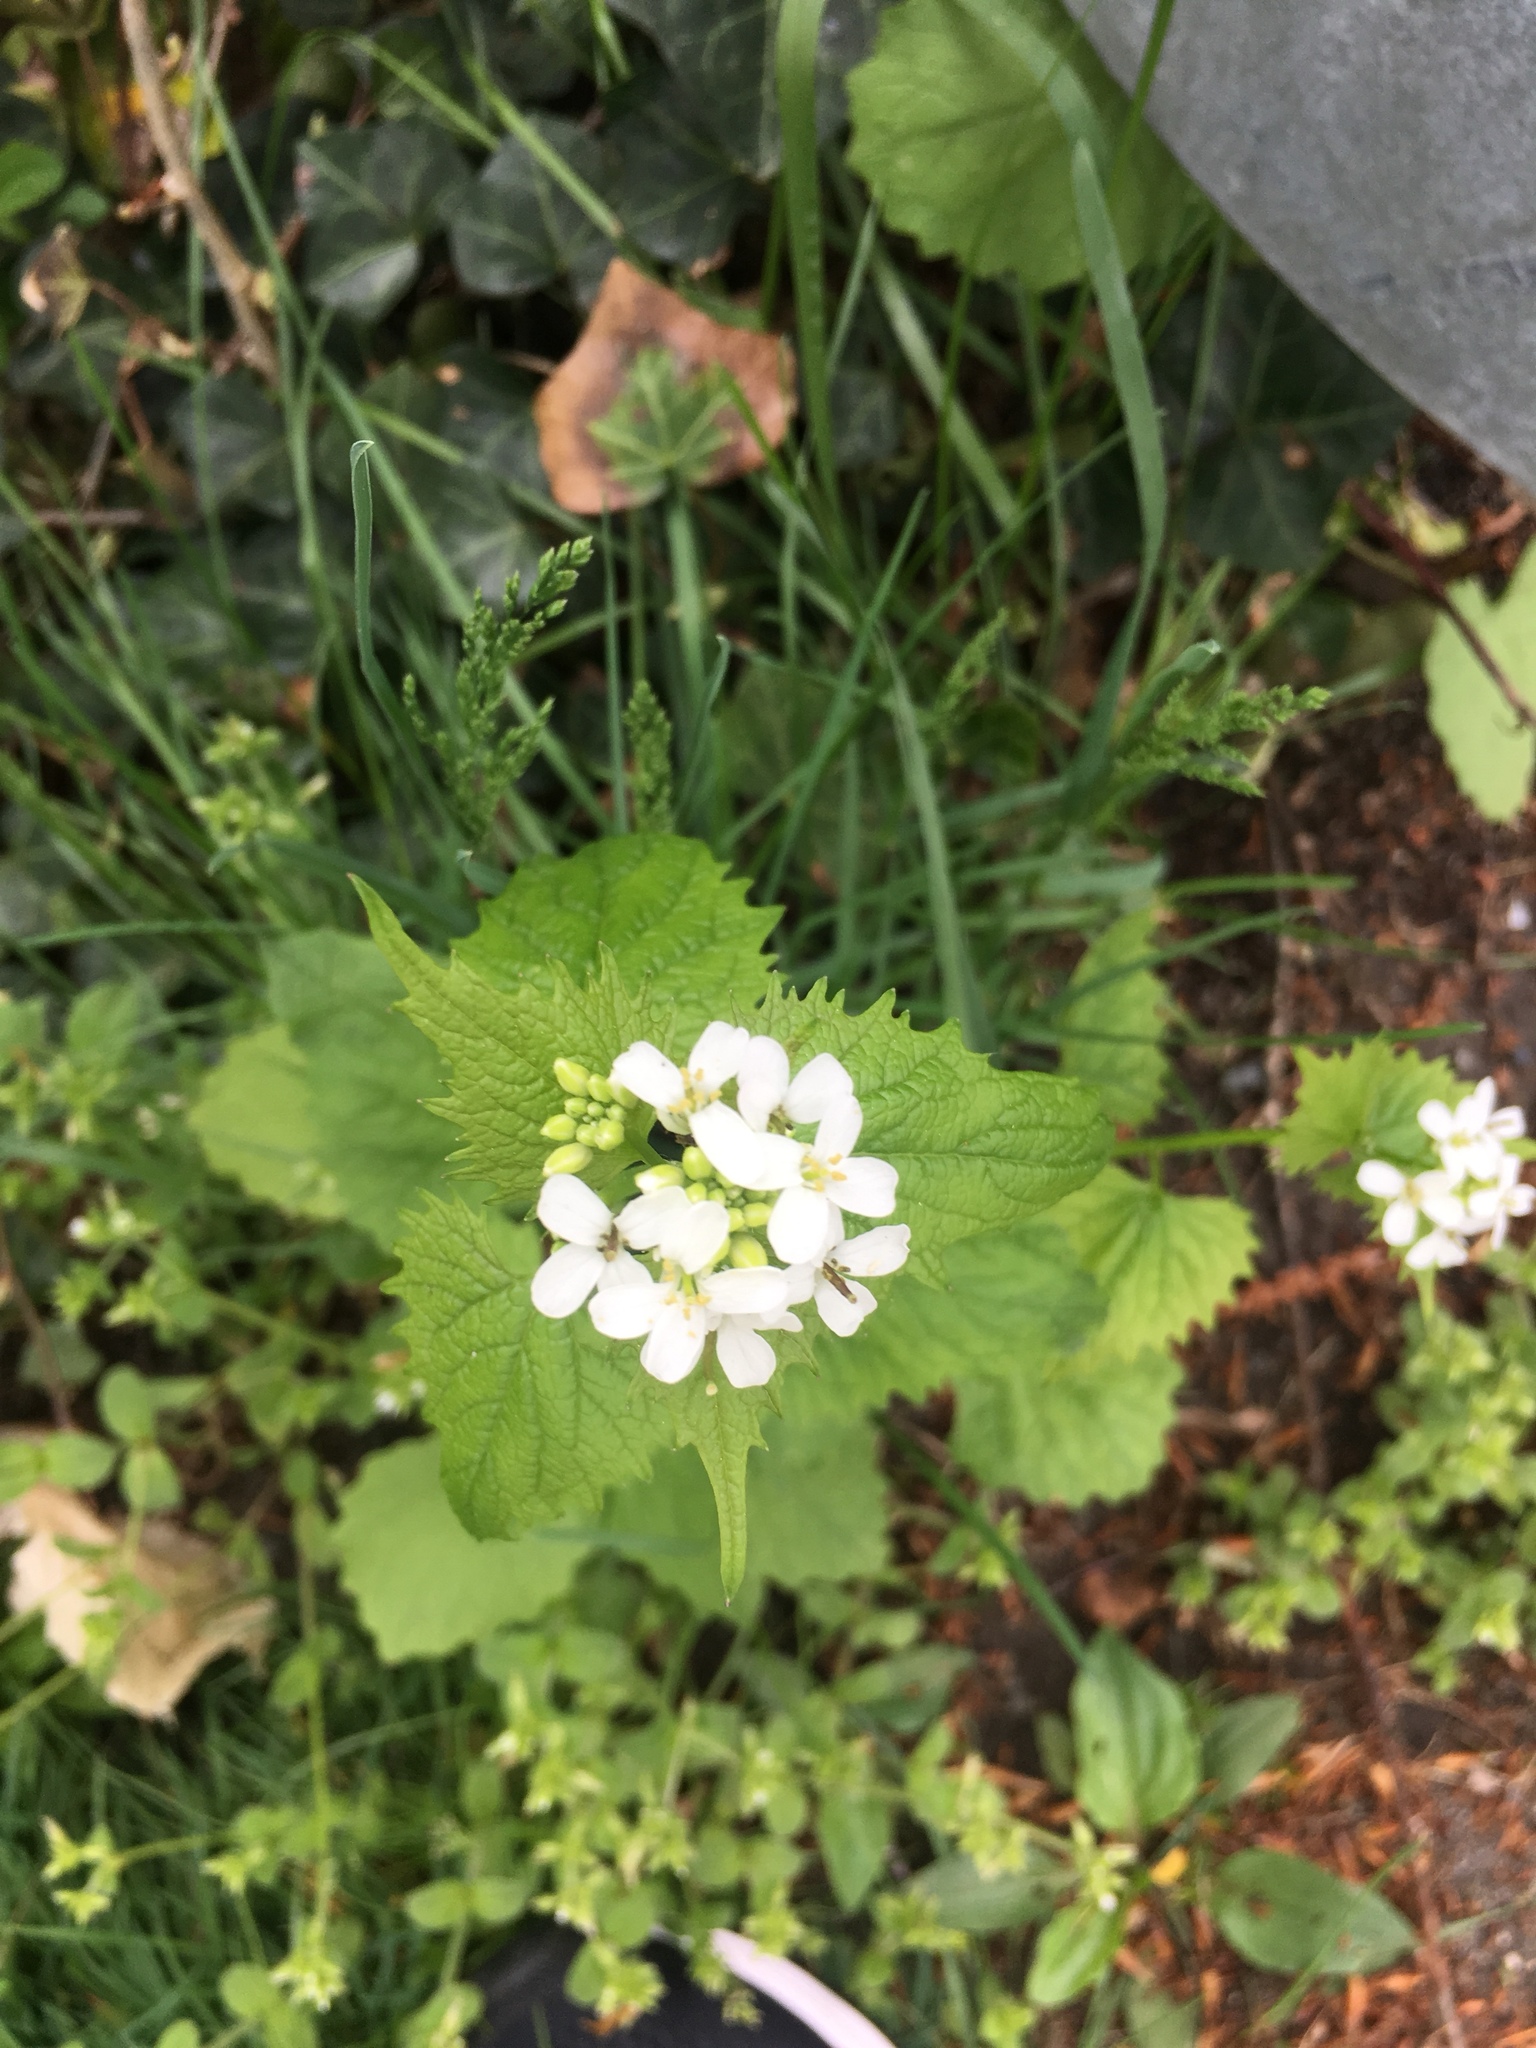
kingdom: Plantae
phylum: Tracheophyta
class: Magnoliopsida
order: Brassicales
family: Brassicaceae
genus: Alliaria
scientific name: Alliaria petiolata
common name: Garlic mustard
